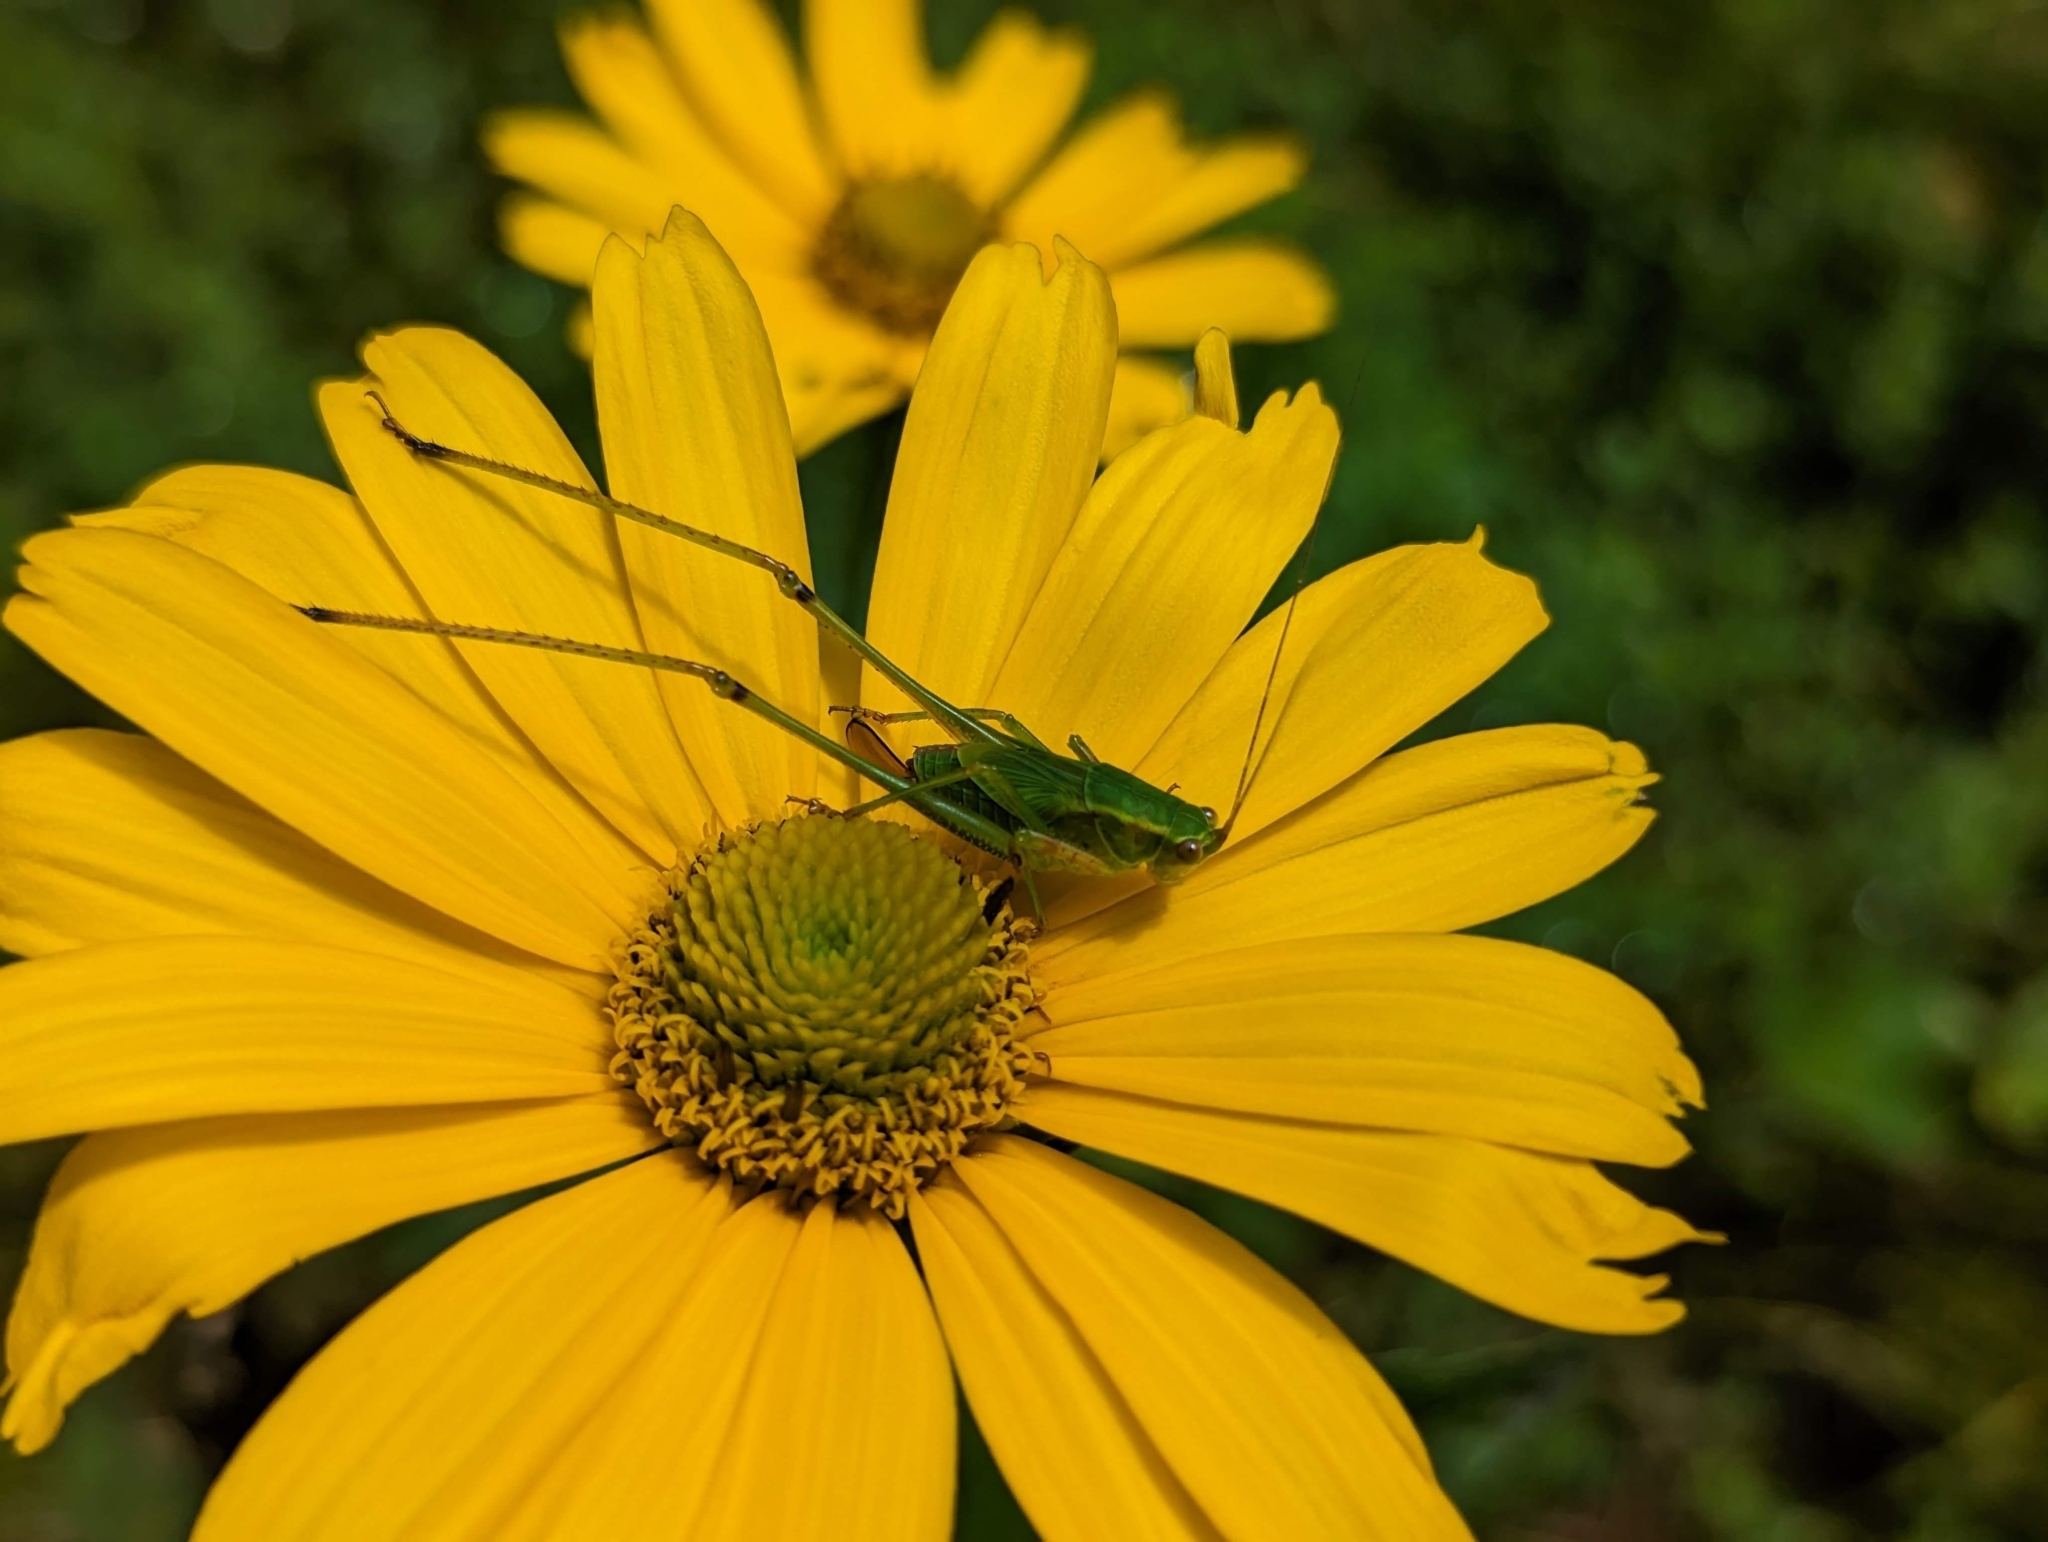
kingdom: Animalia
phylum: Arthropoda
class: Insecta
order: Orthoptera
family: Tettigoniidae
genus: Scudderia
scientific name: Scudderia furcata
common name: Fork-tailed bush katydid
